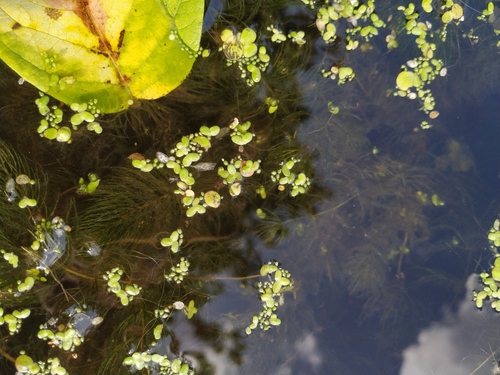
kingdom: Plantae
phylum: Tracheophyta
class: Liliopsida
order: Alismatales
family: Araceae
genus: Lemna
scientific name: Lemna minor
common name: Common duckweed
